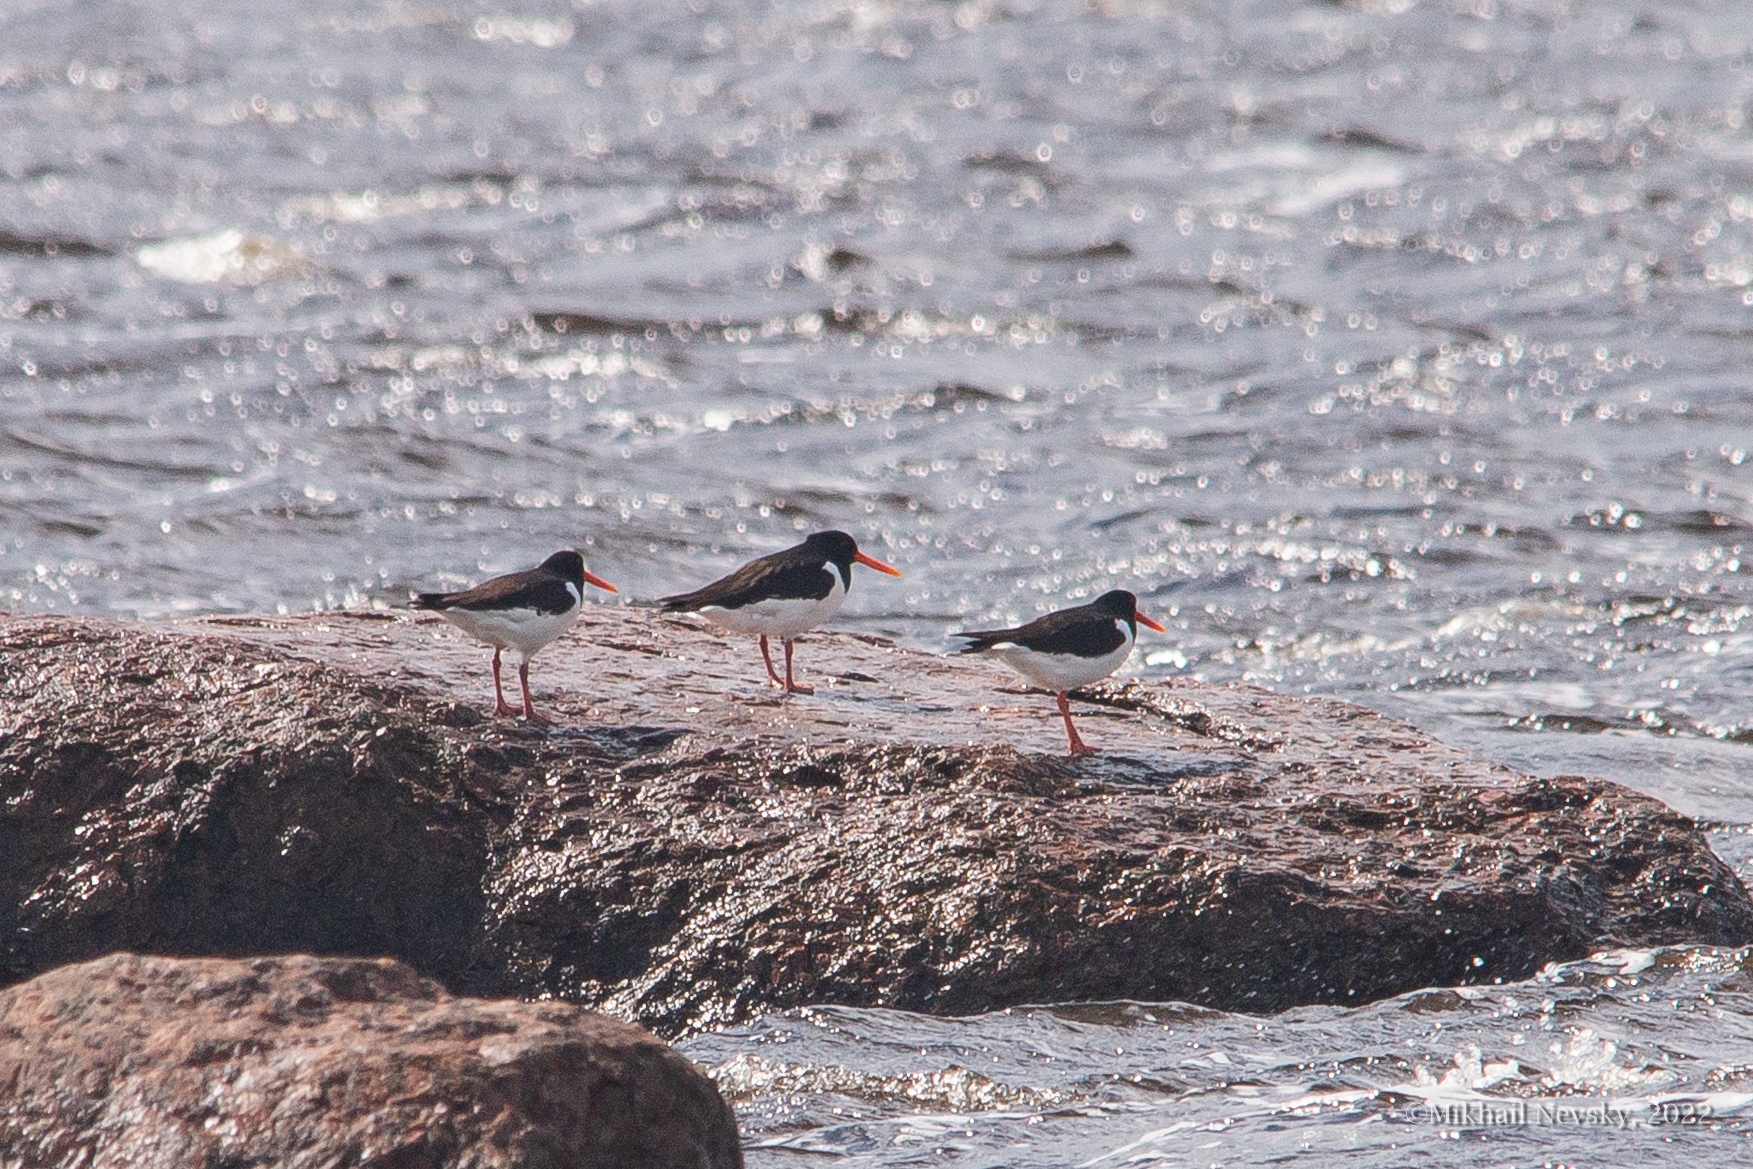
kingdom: Animalia
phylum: Chordata
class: Aves
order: Charadriiformes
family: Haematopodidae
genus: Haematopus
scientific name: Haematopus ostralegus
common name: Eurasian oystercatcher
